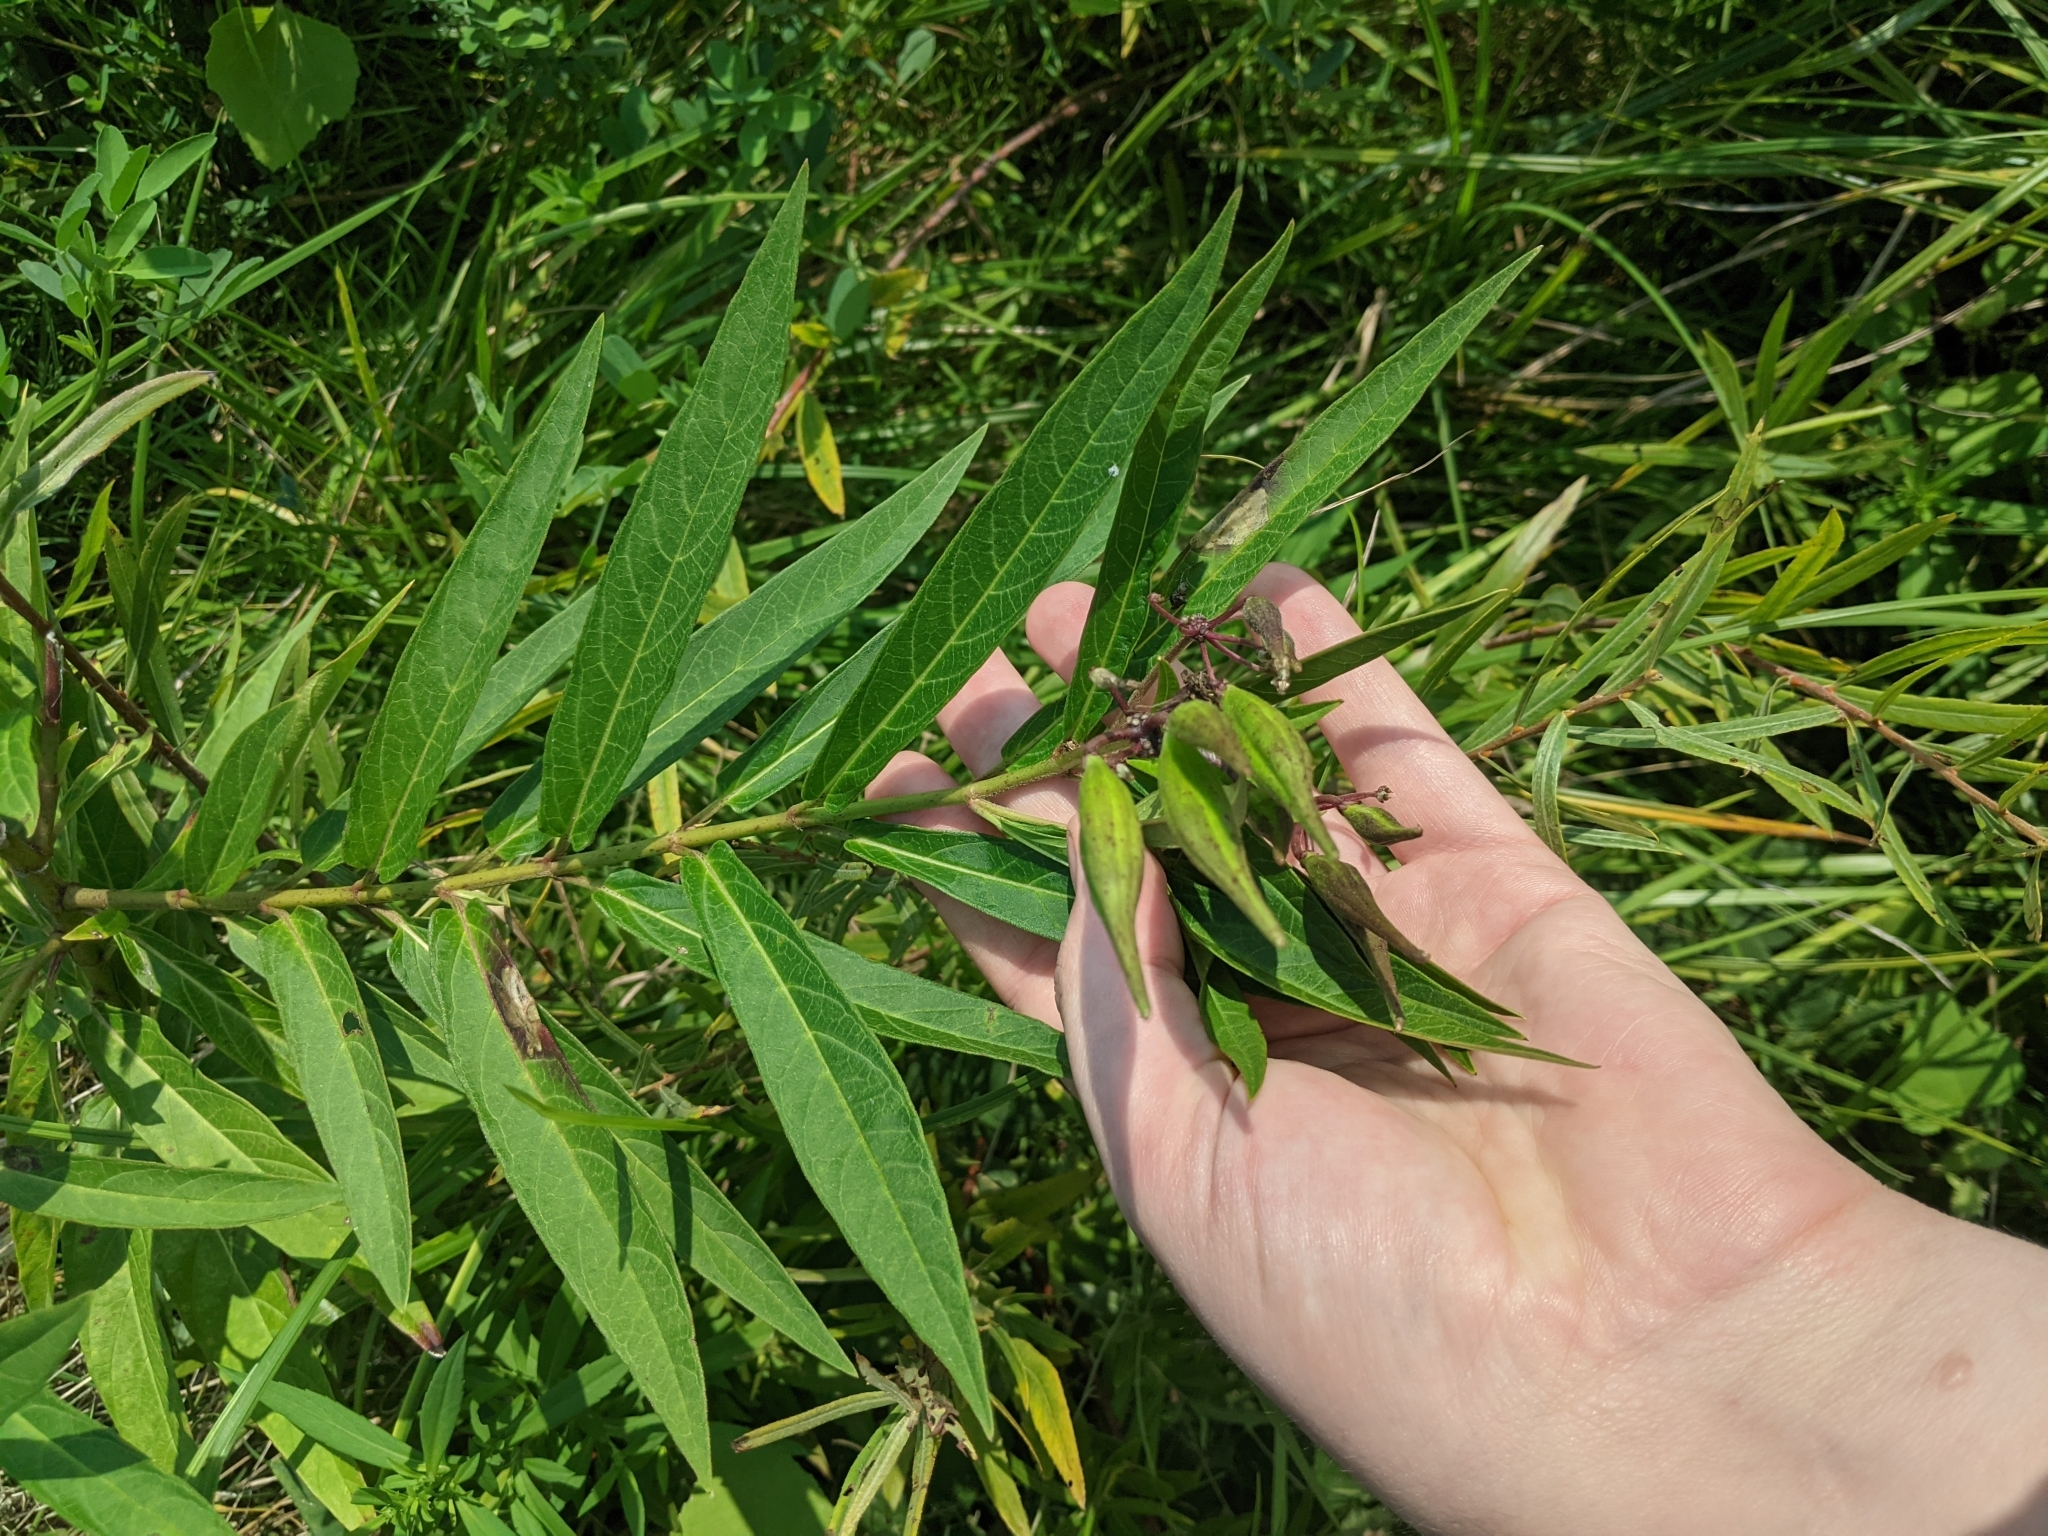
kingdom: Plantae
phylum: Tracheophyta
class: Magnoliopsida
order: Gentianales
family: Apocynaceae
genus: Asclepias
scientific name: Asclepias incarnata
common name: Swamp milkweed
